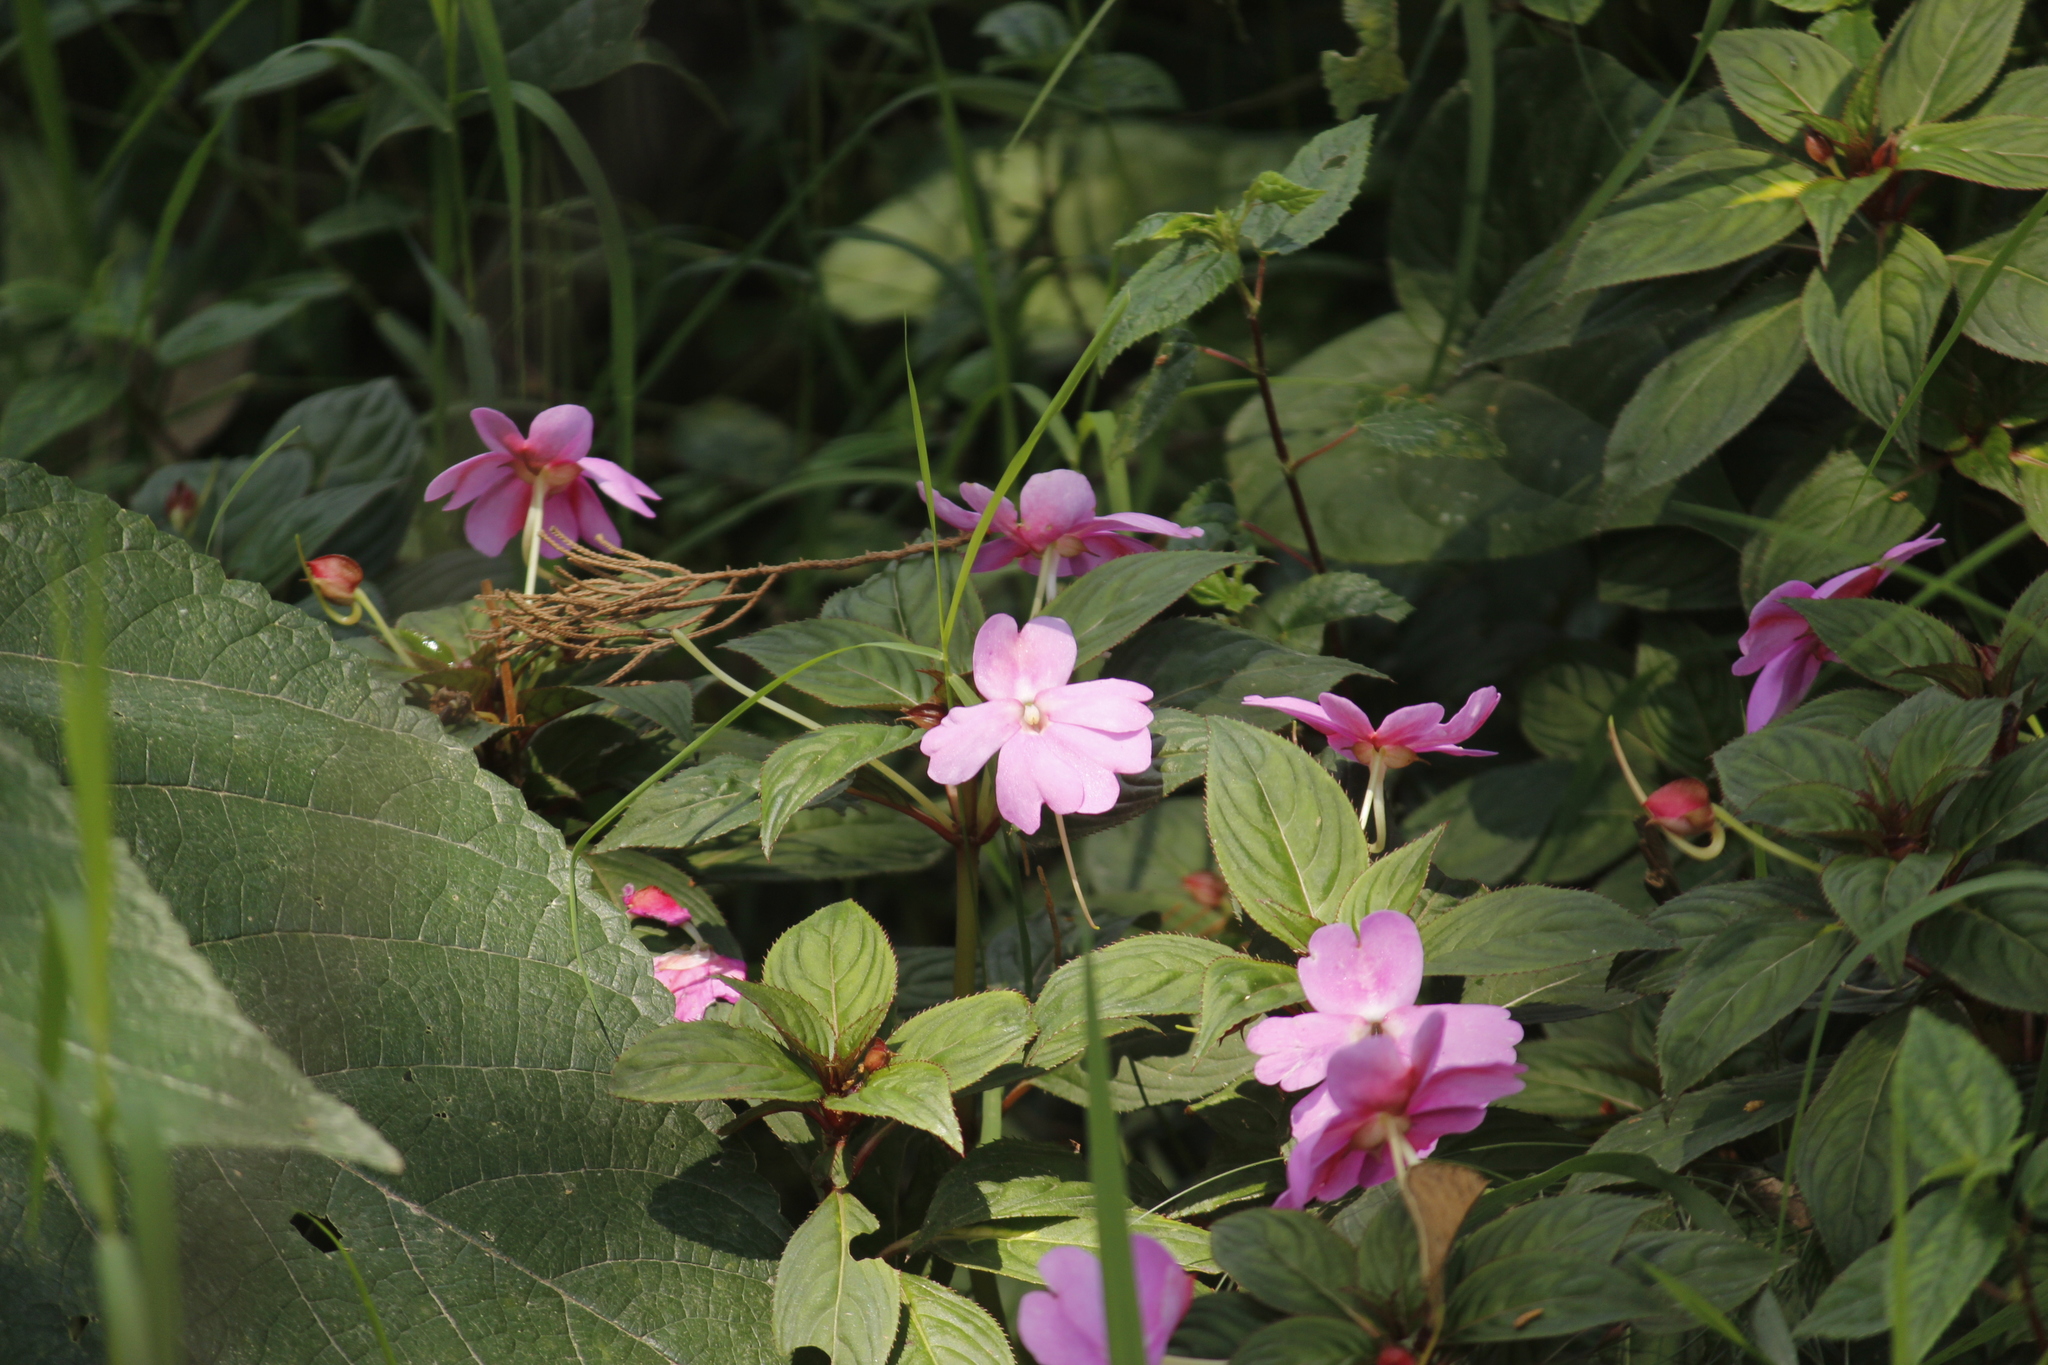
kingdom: Plantae
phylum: Tracheophyta
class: Magnoliopsida
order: Ericales
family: Balsaminaceae
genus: Impatiens
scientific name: Impatiens hawkeri
